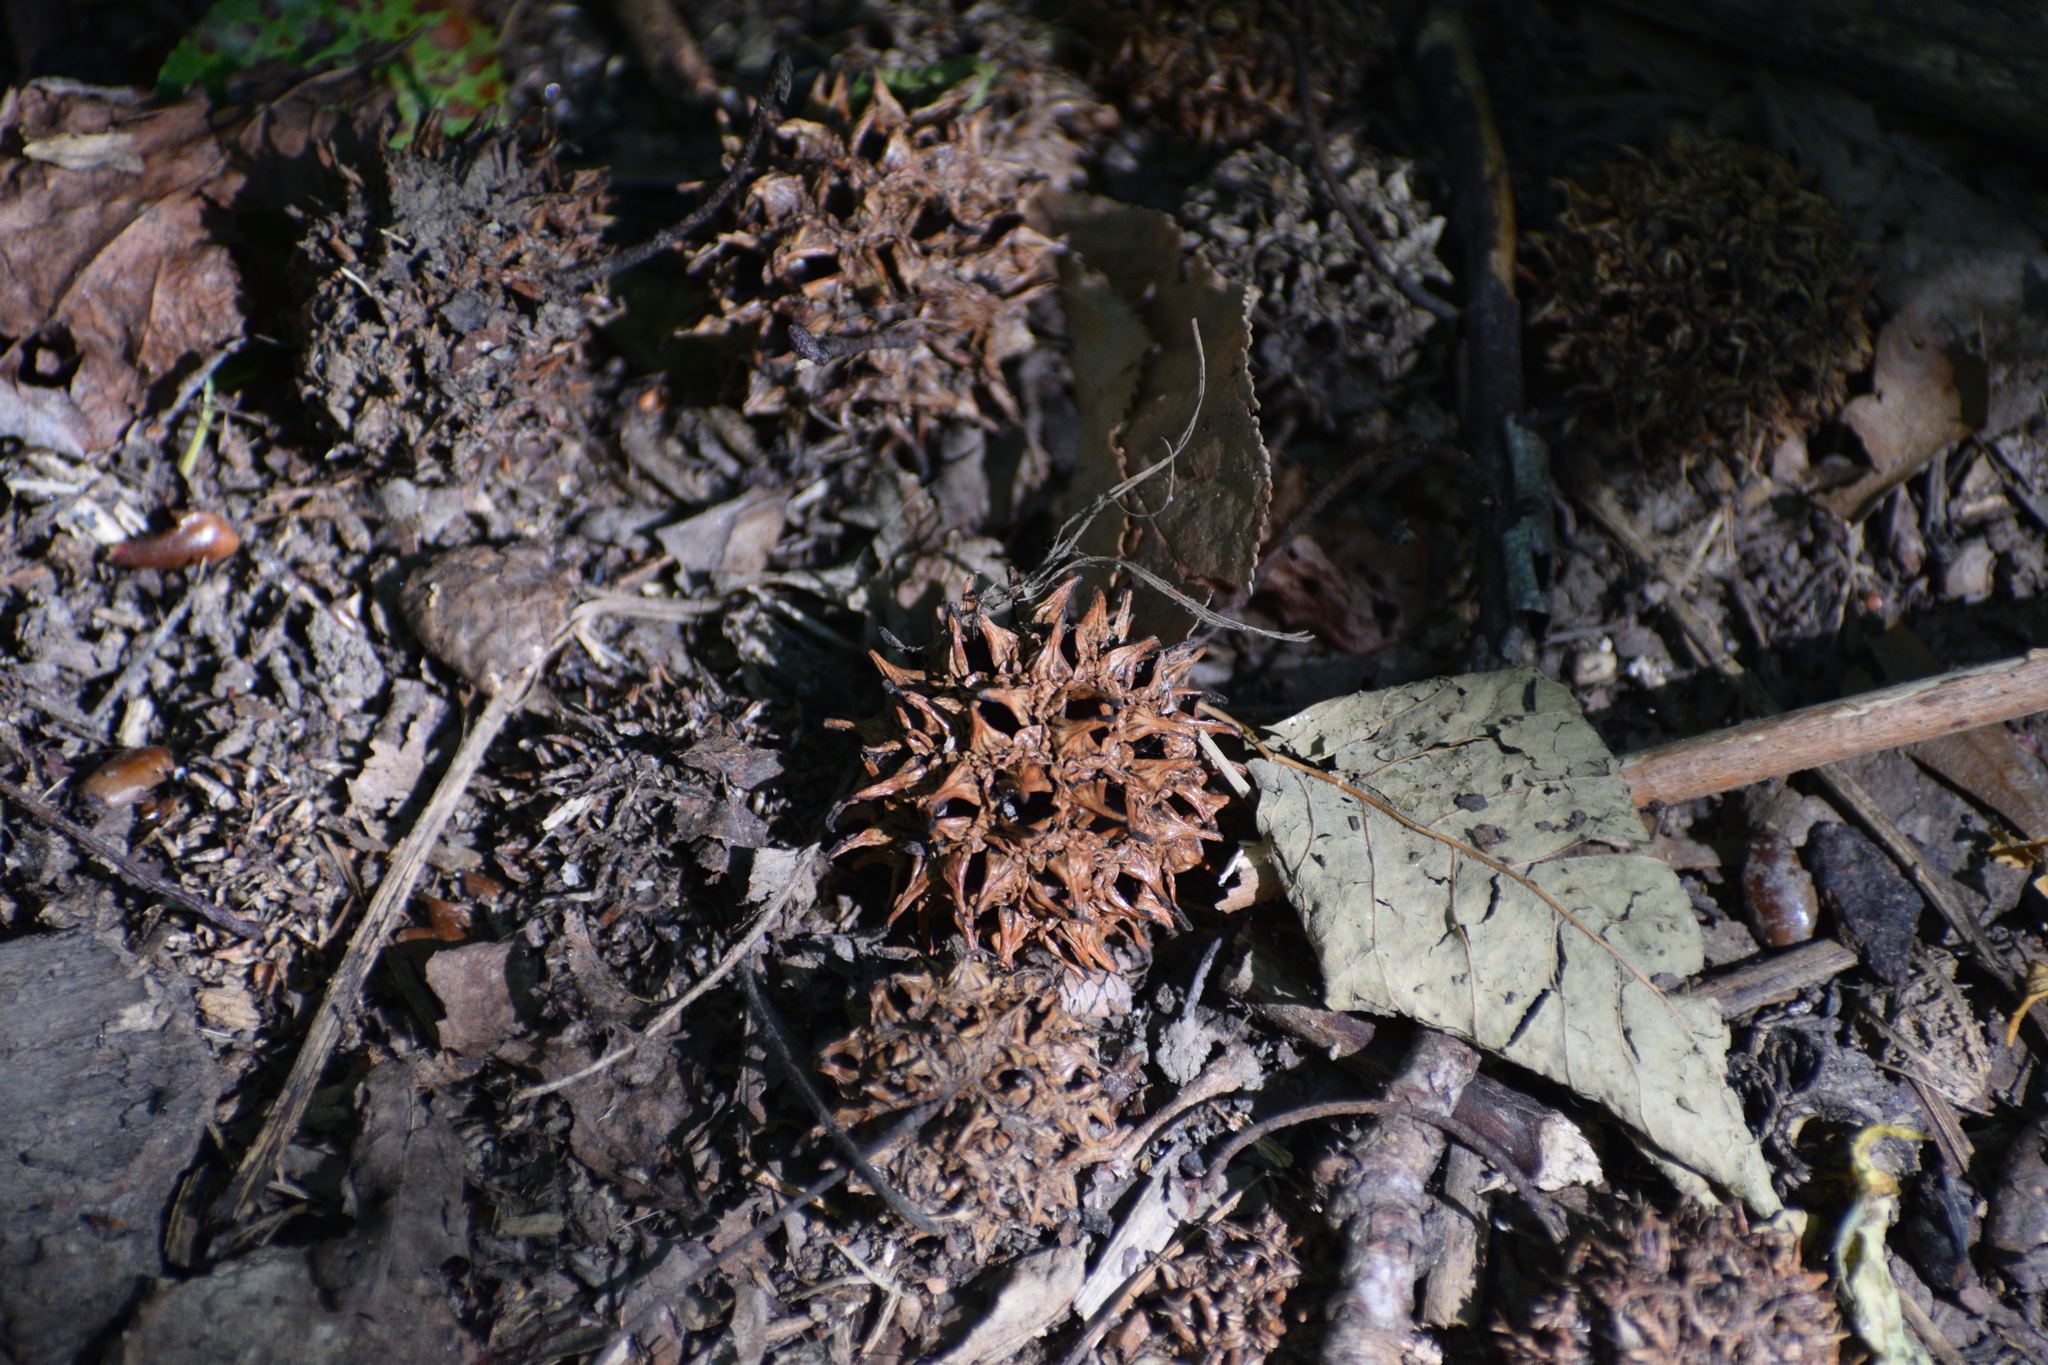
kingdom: Plantae
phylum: Tracheophyta
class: Magnoliopsida
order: Saxifragales
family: Altingiaceae
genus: Liquidambar
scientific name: Liquidambar styraciflua
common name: Sweet gum
